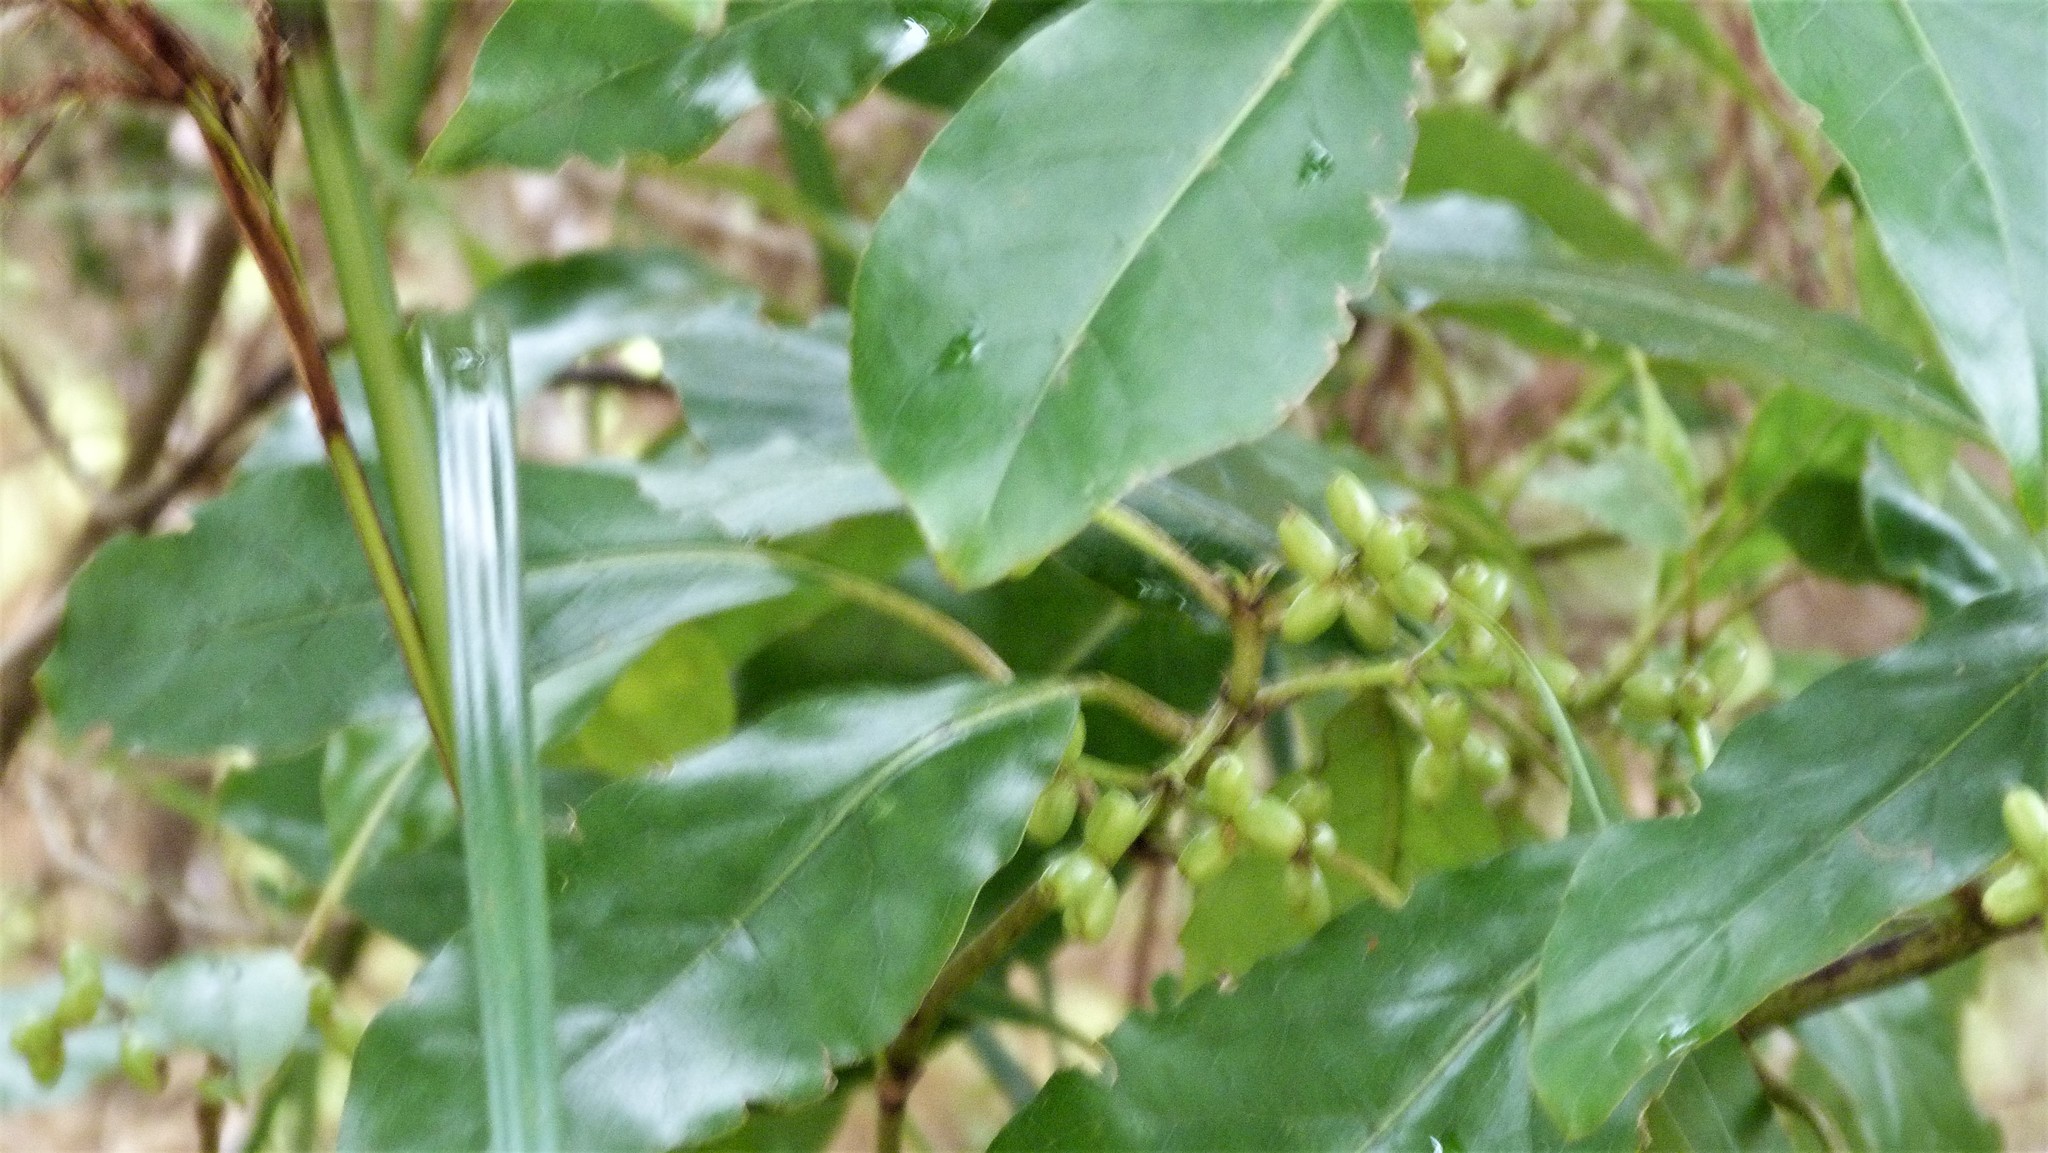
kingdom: Plantae
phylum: Tracheophyta
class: Magnoliopsida
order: Gentianales
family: Rubiaceae
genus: Coprosma
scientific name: Coprosma lucida
